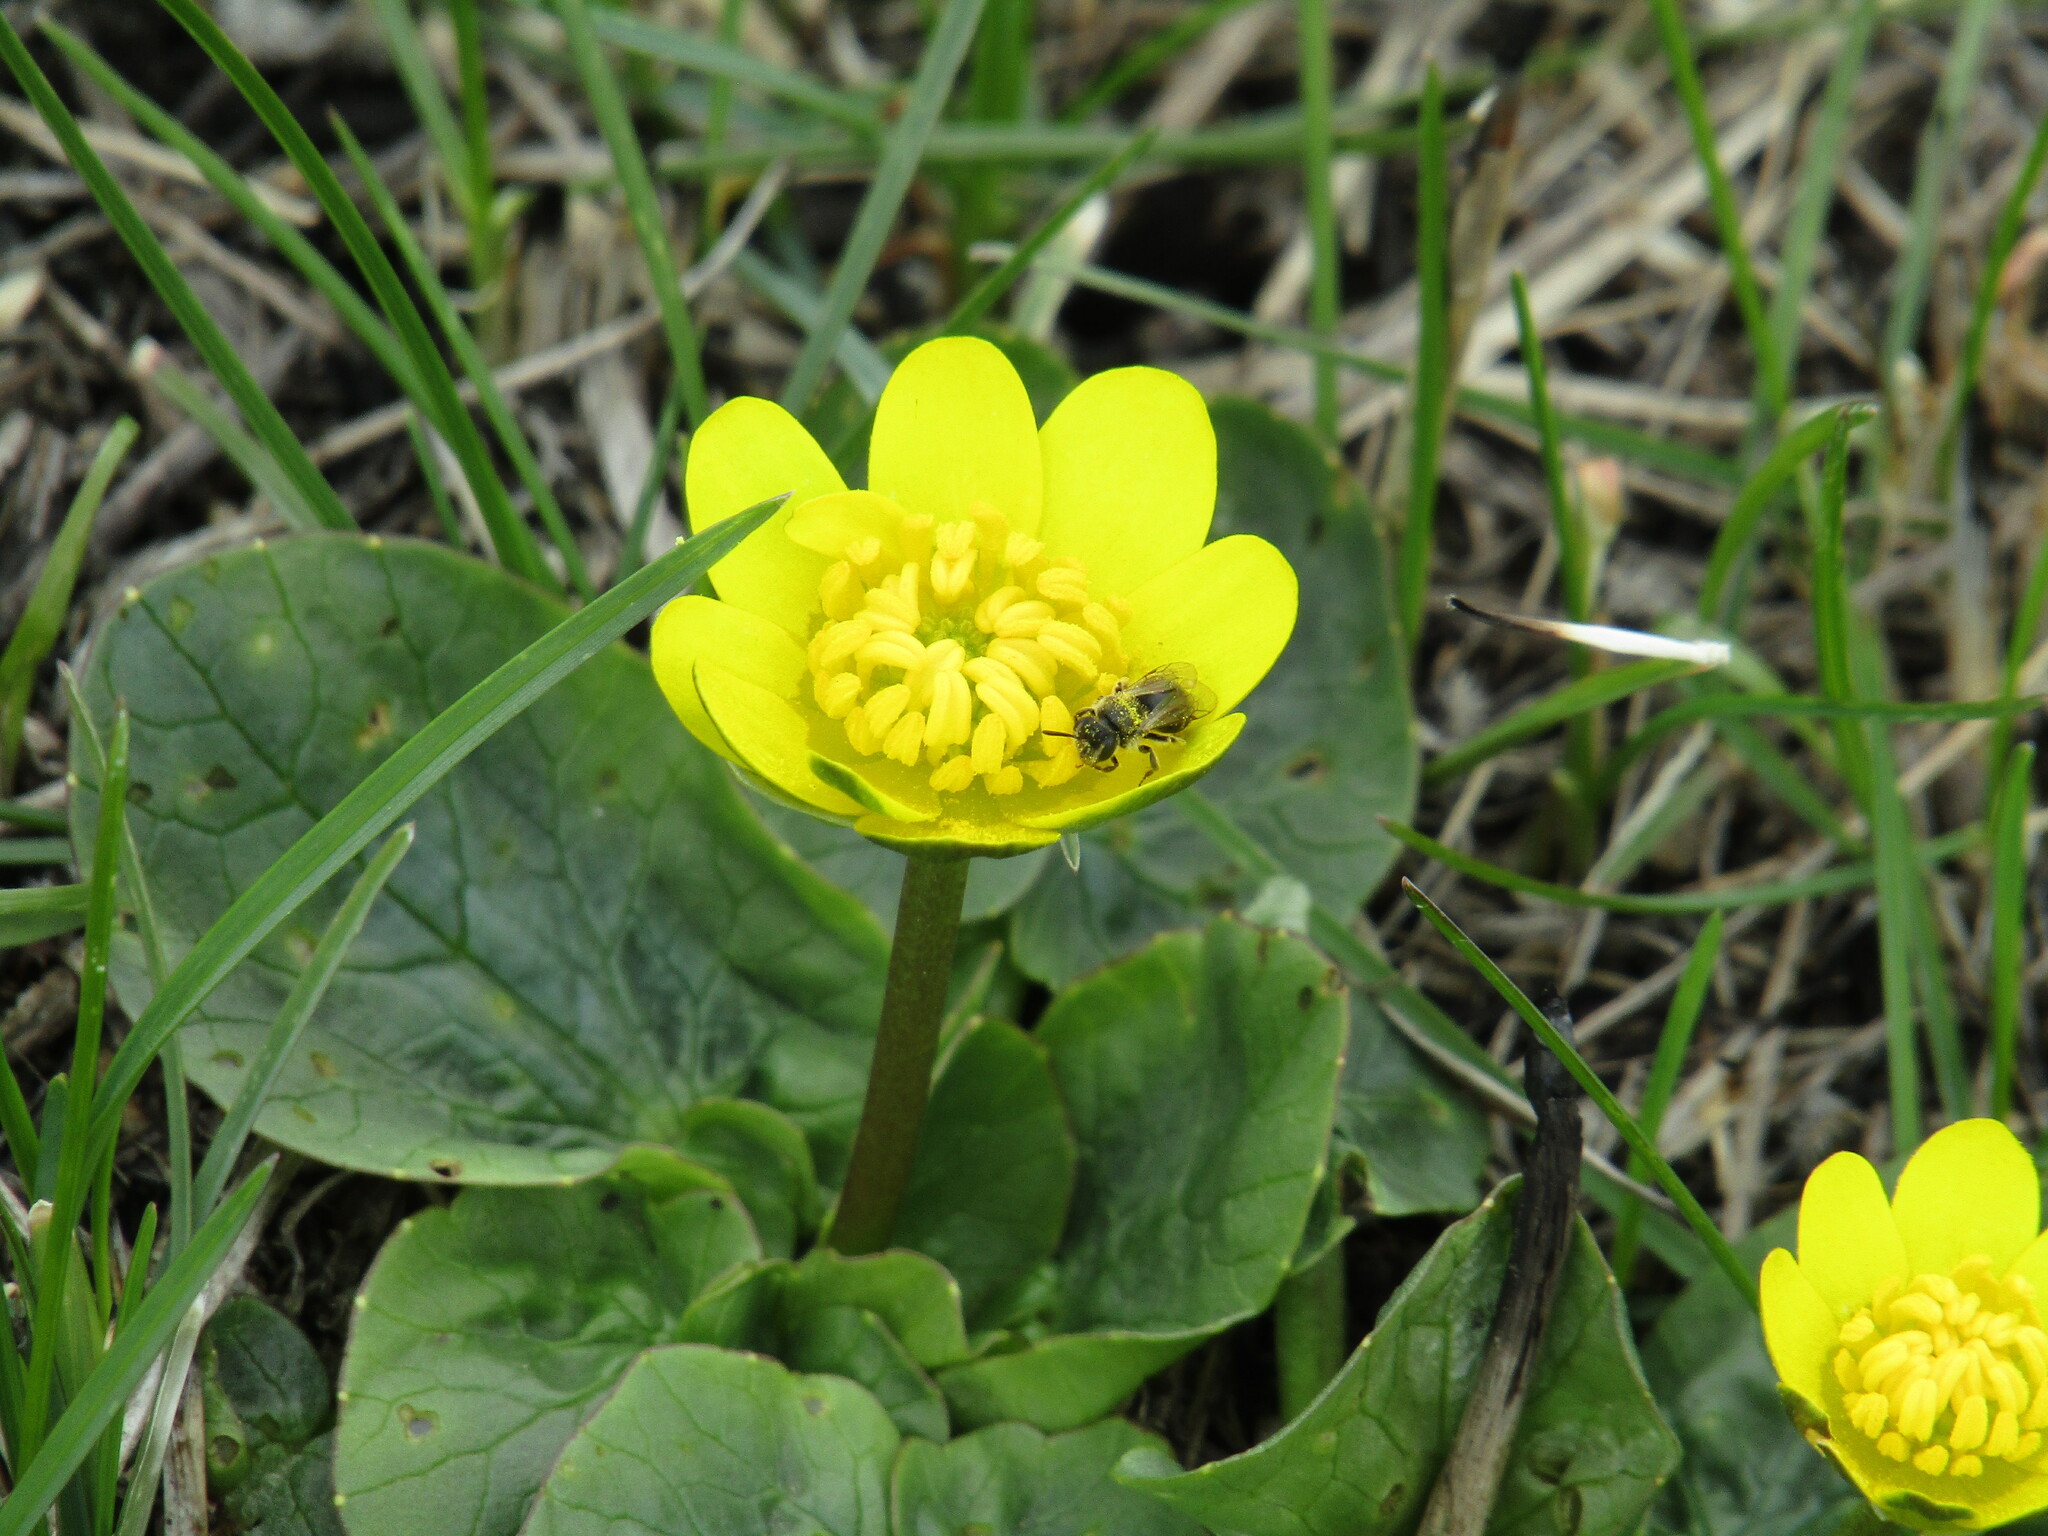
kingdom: Plantae
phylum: Tracheophyta
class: Magnoliopsida
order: Ranunculales
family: Ranunculaceae
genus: Ficaria
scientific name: Ficaria verna
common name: Lesser celandine
